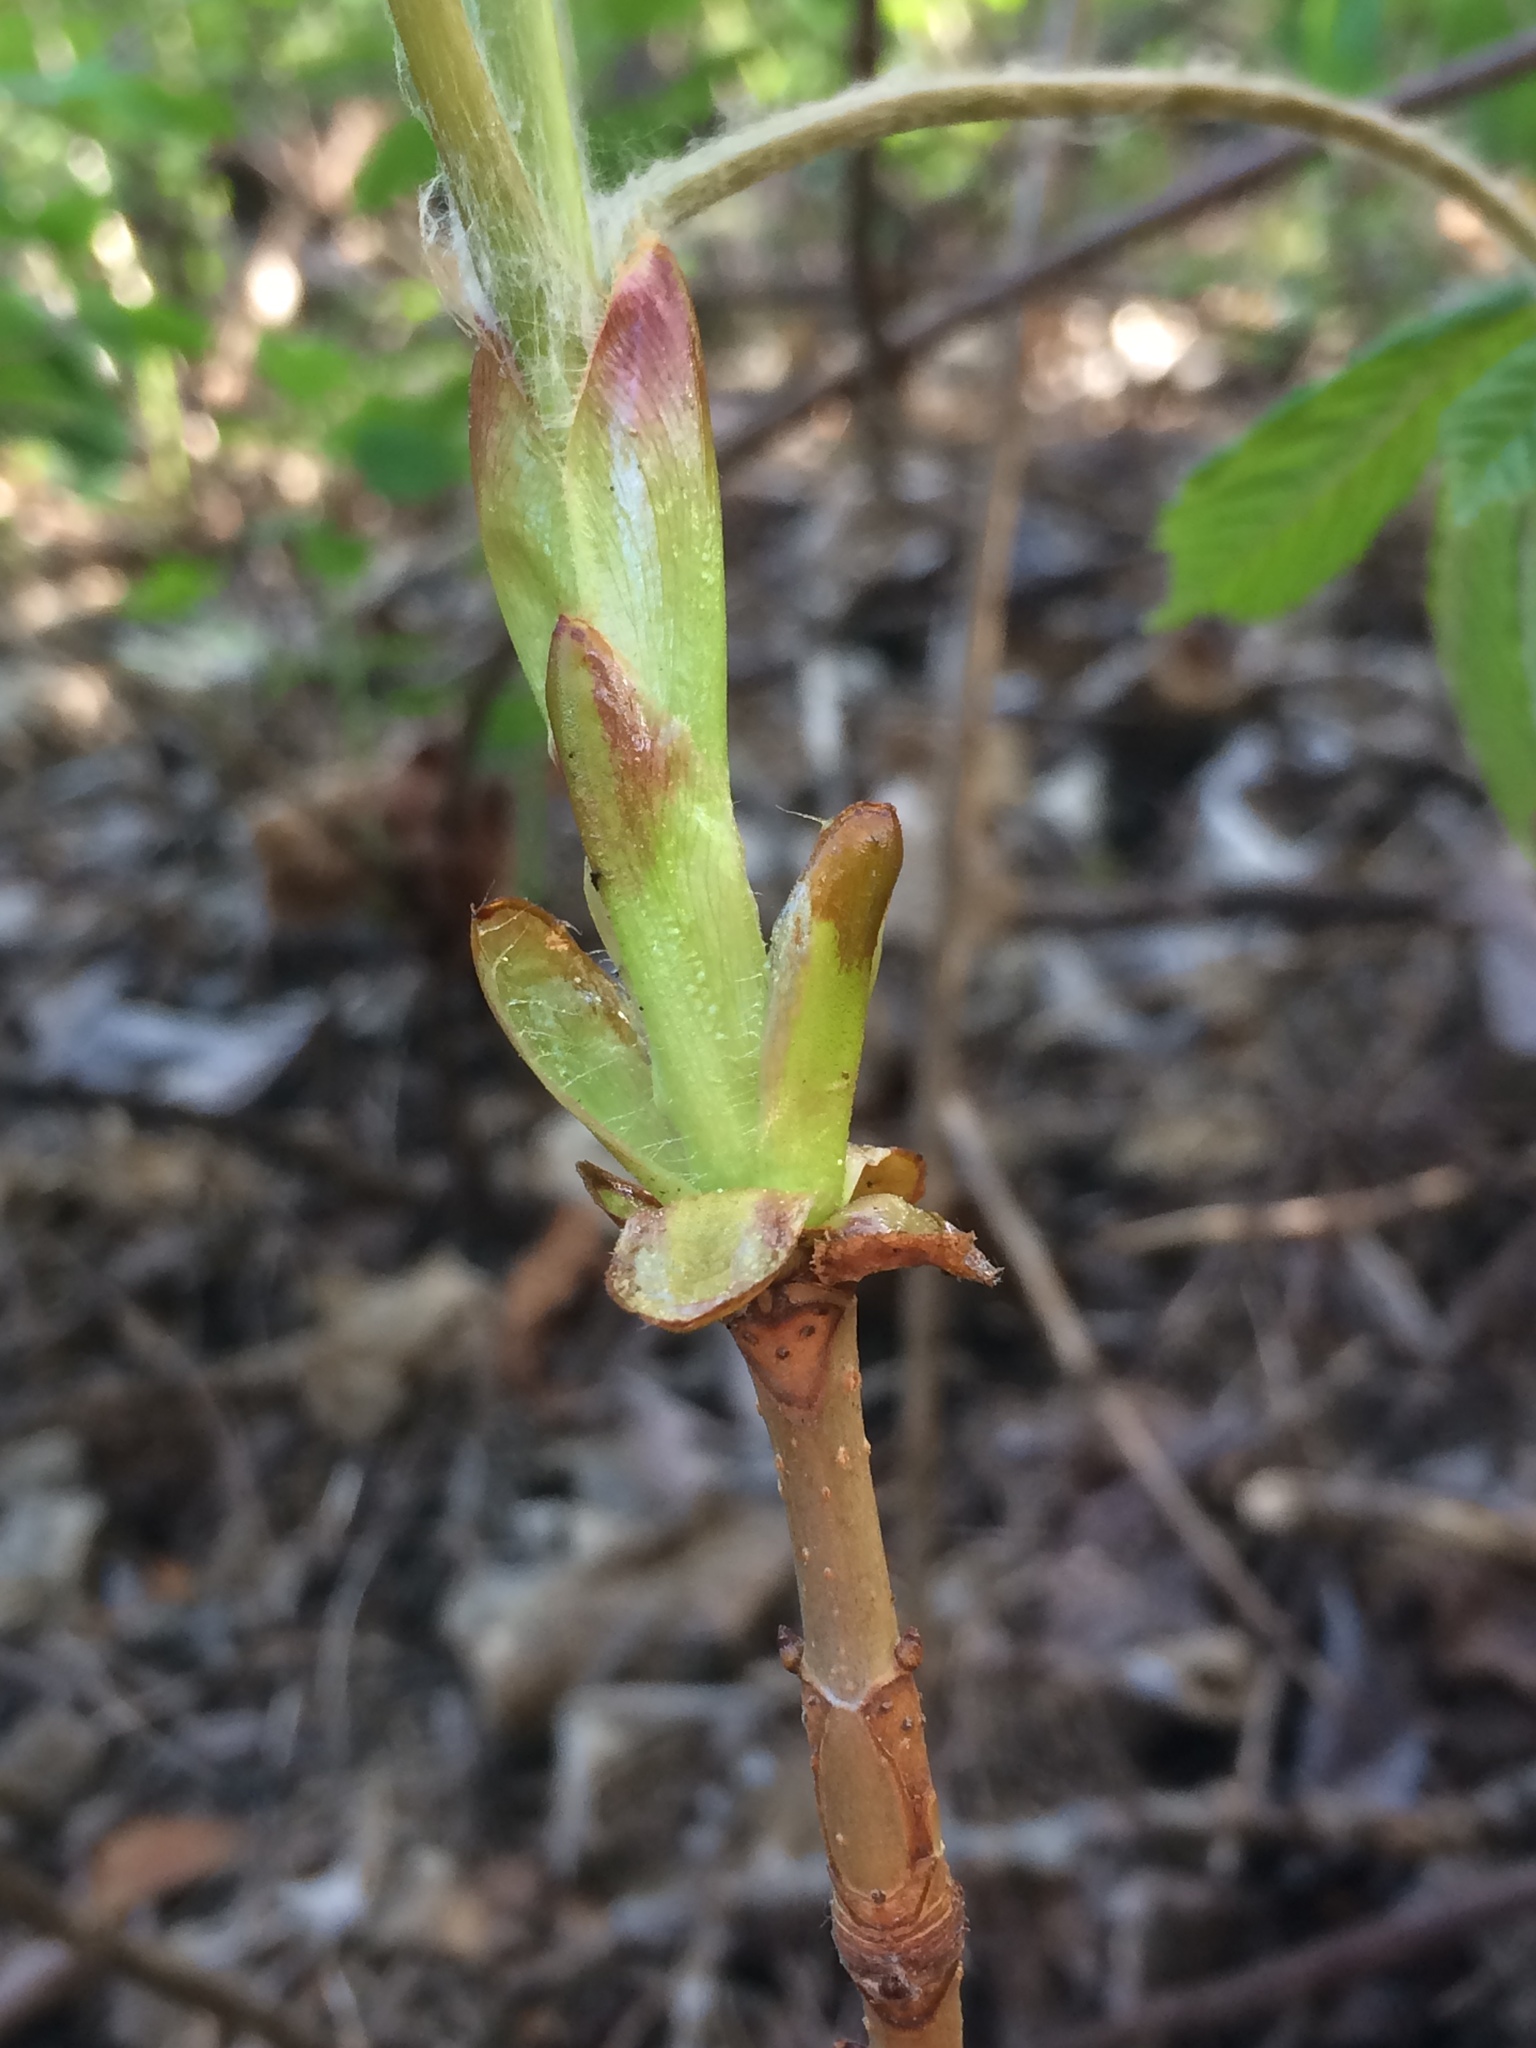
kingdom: Plantae
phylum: Tracheophyta
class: Magnoliopsida
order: Sapindales
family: Sapindaceae
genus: Aesculus
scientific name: Aesculus hippocastanum
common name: Horse-chestnut
